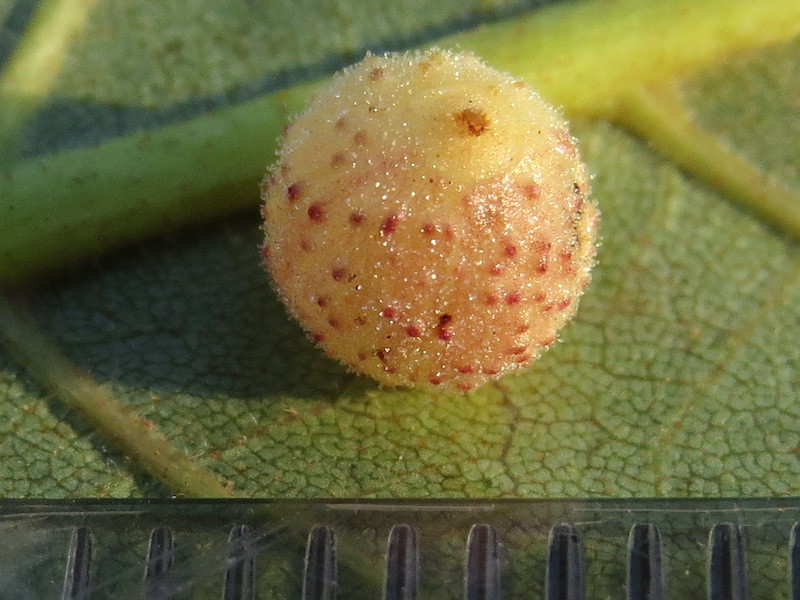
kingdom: Animalia
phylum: Arthropoda
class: Insecta
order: Diptera
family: Cecidomyiidae
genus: Caryomyia
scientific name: Caryomyia tuberidolium
